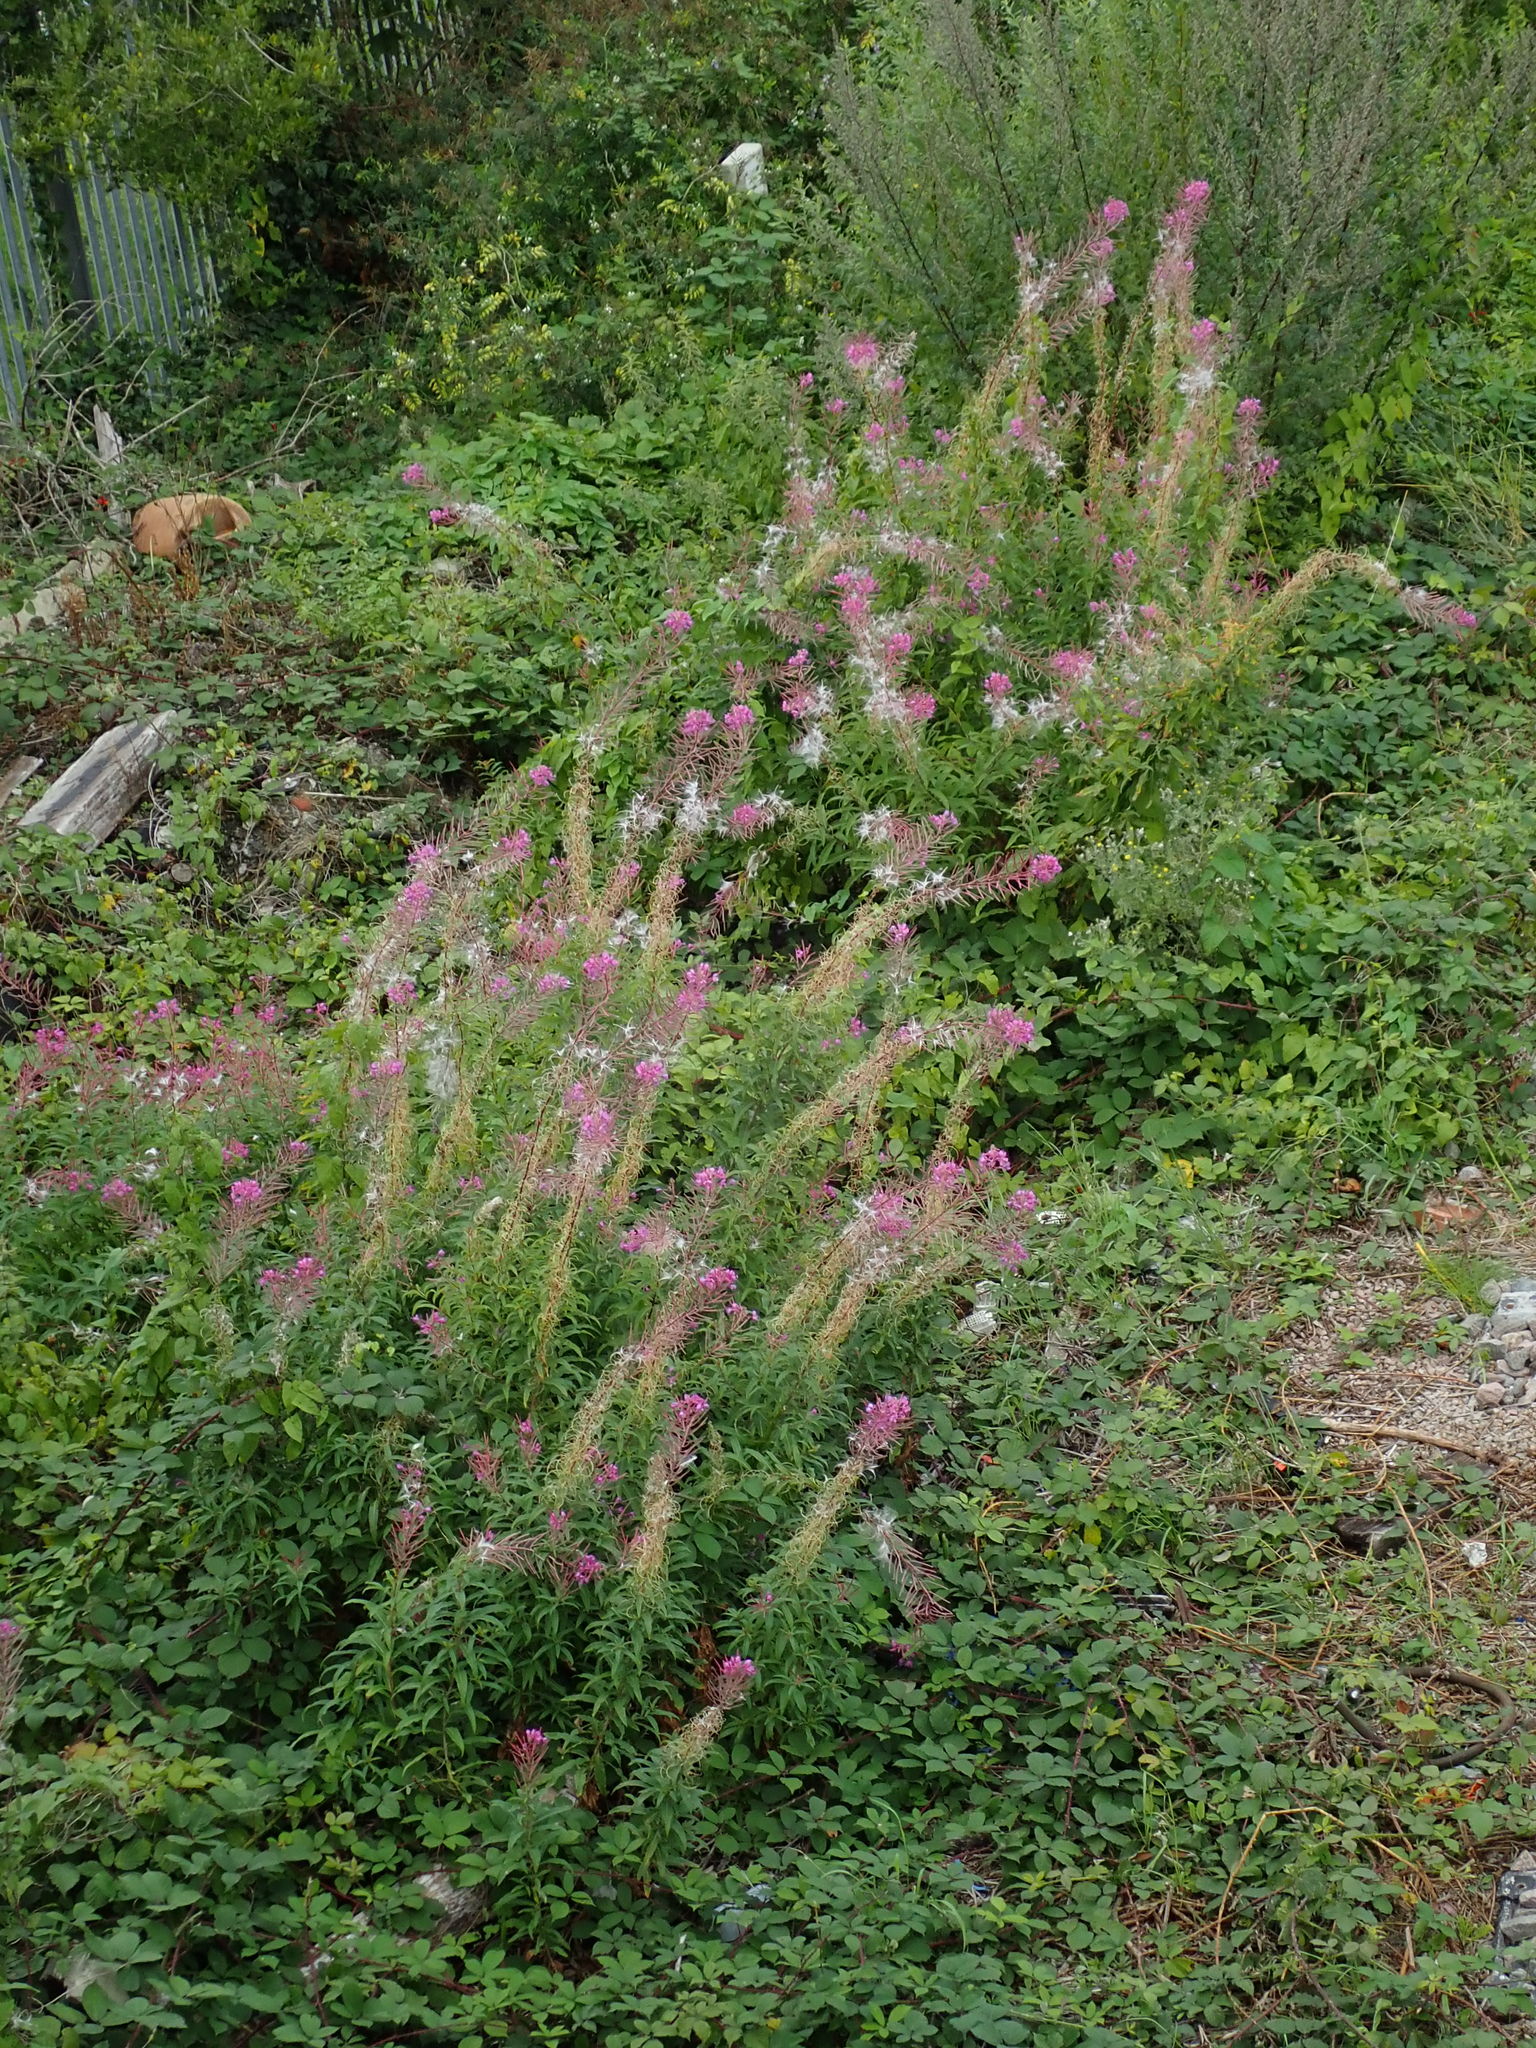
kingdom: Plantae
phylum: Tracheophyta
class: Magnoliopsida
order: Myrtales
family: Onagraceae
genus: Chamaenerion
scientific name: Chamaenerion angustifolium
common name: Fireweed
